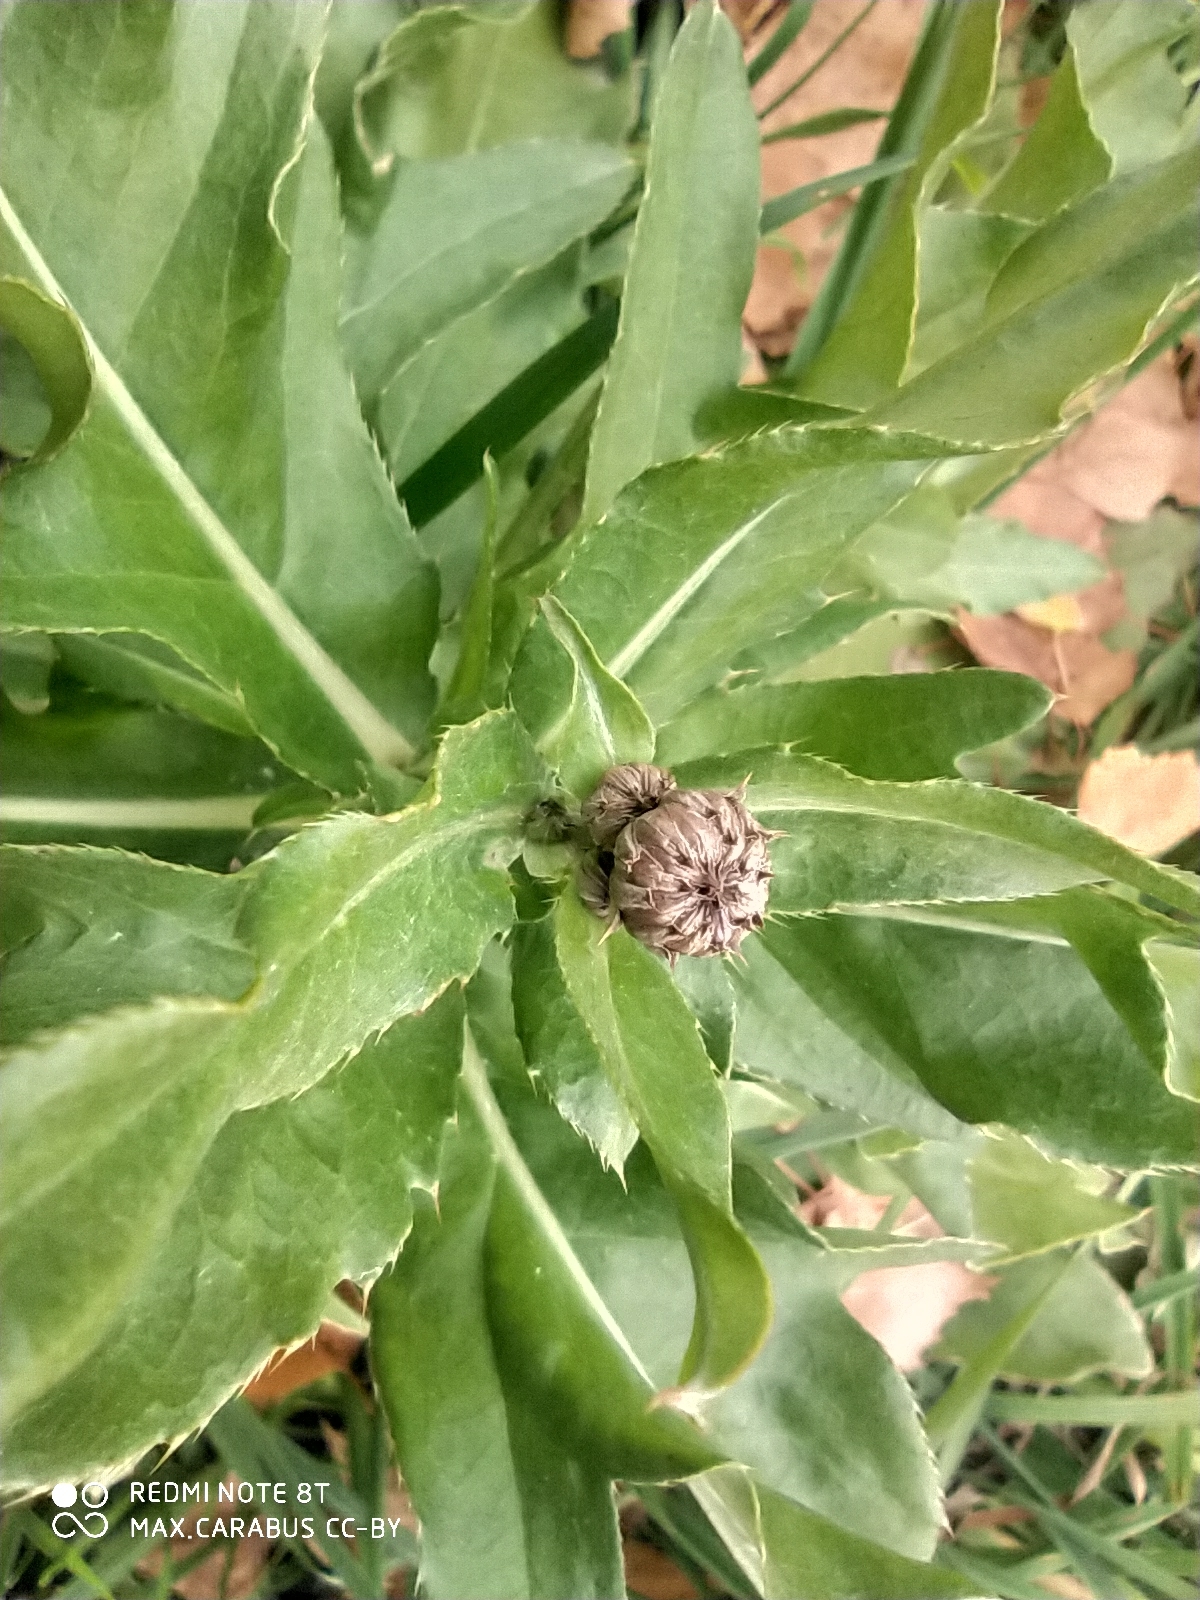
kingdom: Plantae
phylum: Tracheophyta
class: Magnoliopsida
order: Asterales
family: Asteraceae
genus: Cirsium
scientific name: Cirsium arvense
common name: Creeping thistle
